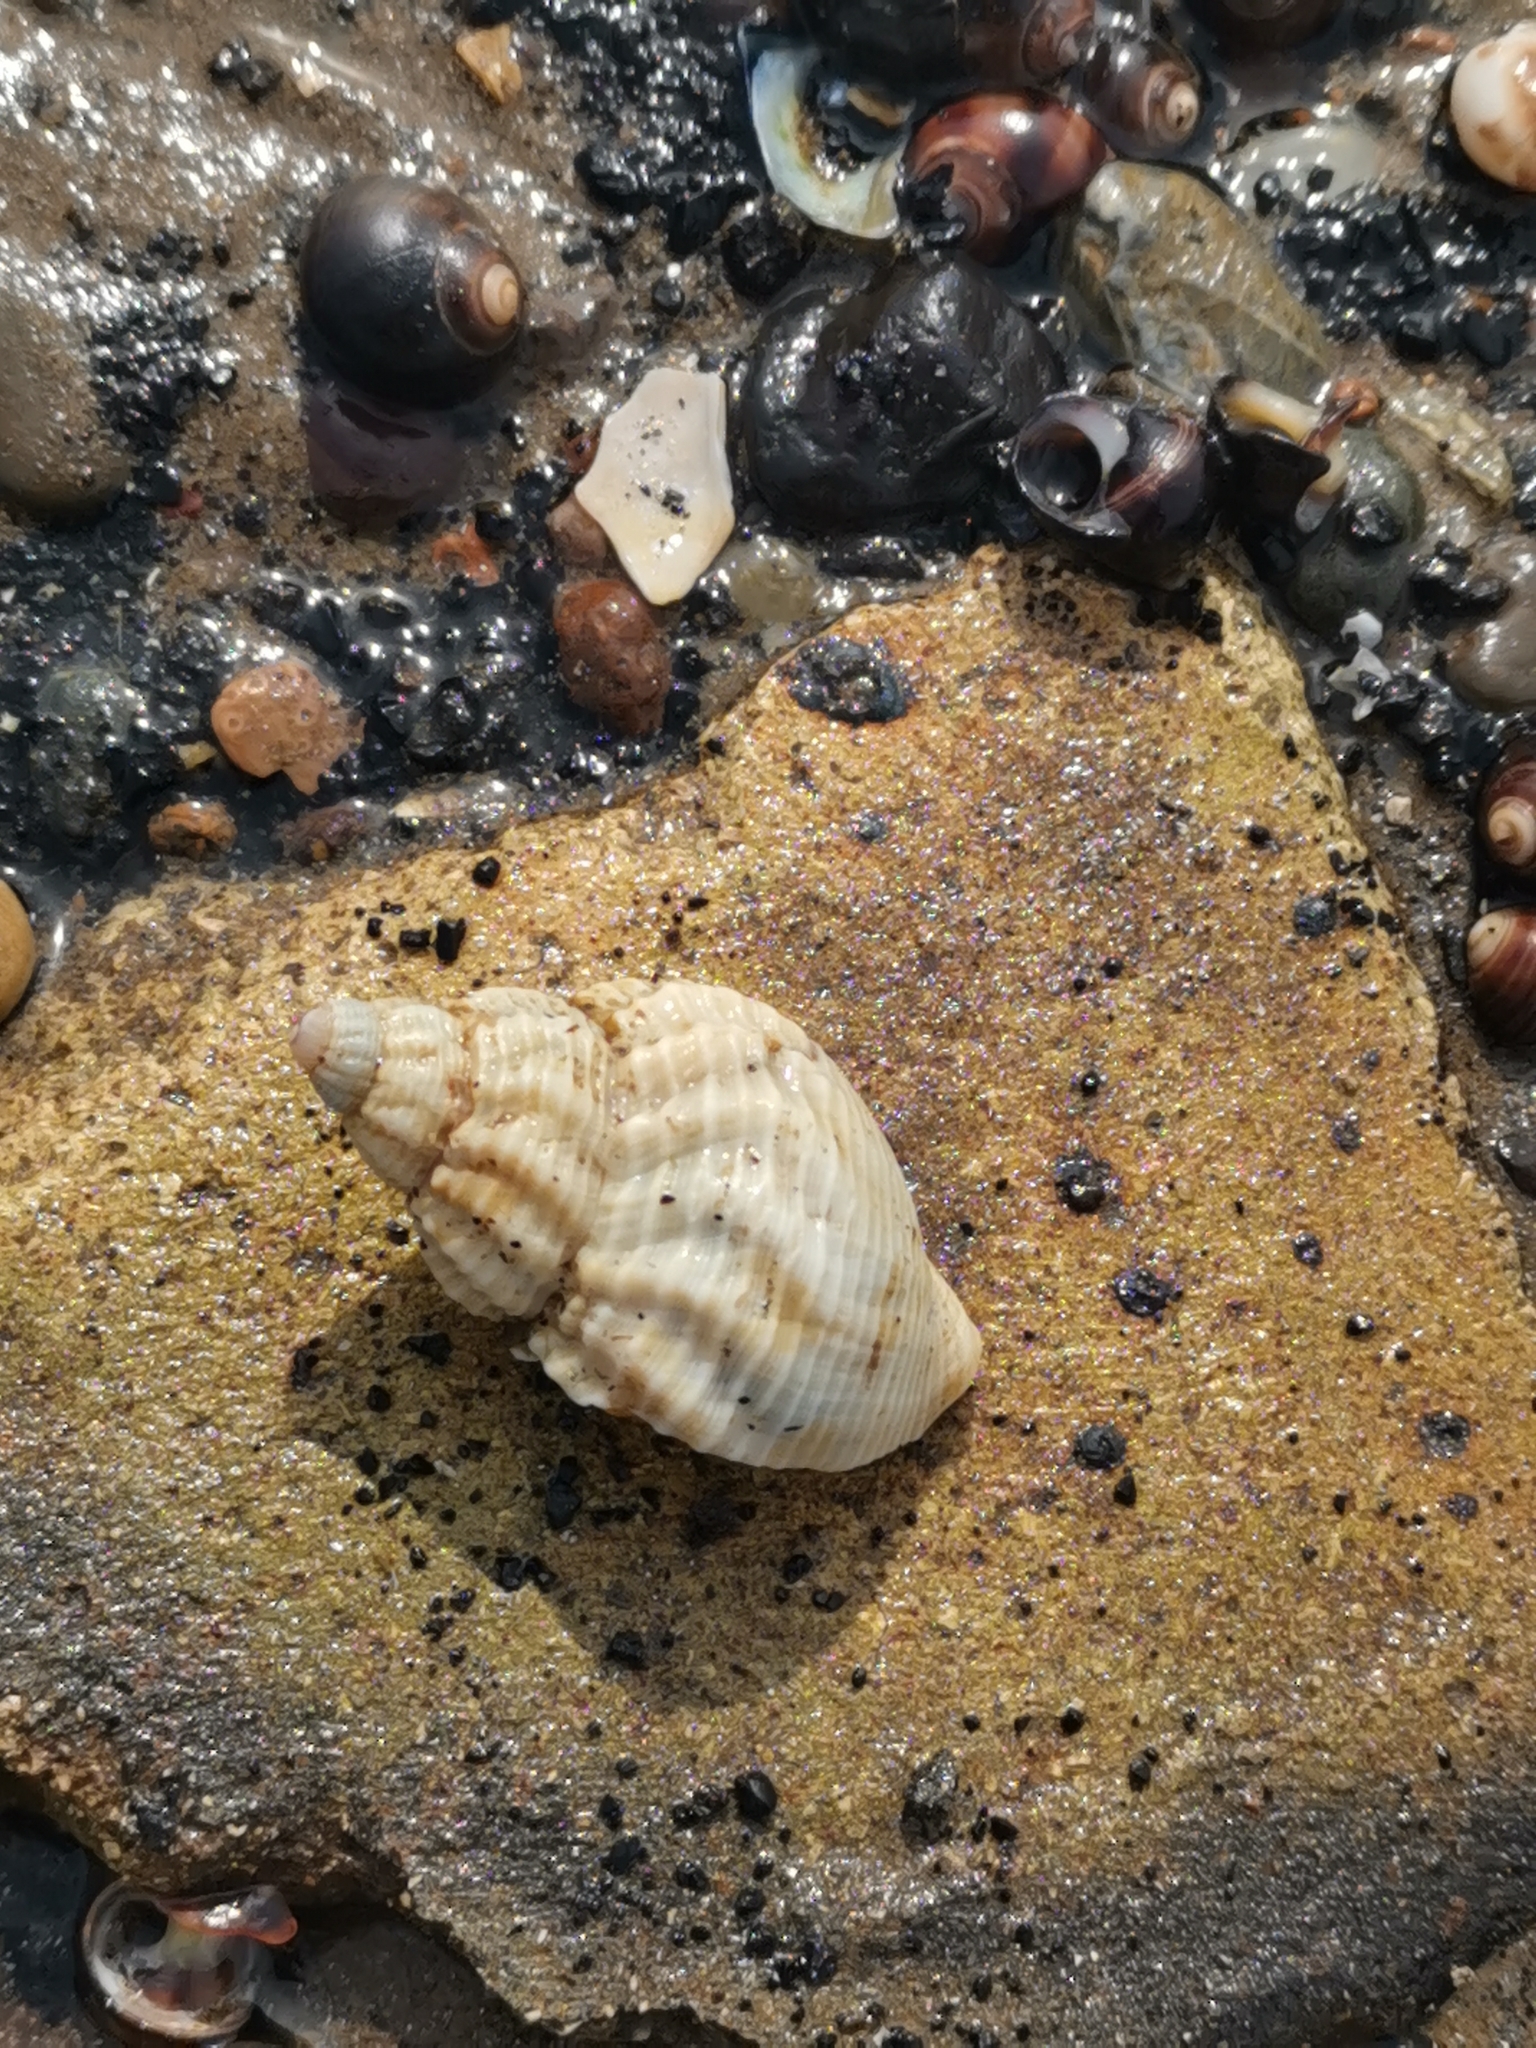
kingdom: Animalia
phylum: Mollusca
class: Gastropoda
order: Neogastropoda
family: Buccinidae
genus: Buccinum
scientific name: Buccinum undatum
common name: Common whelk
